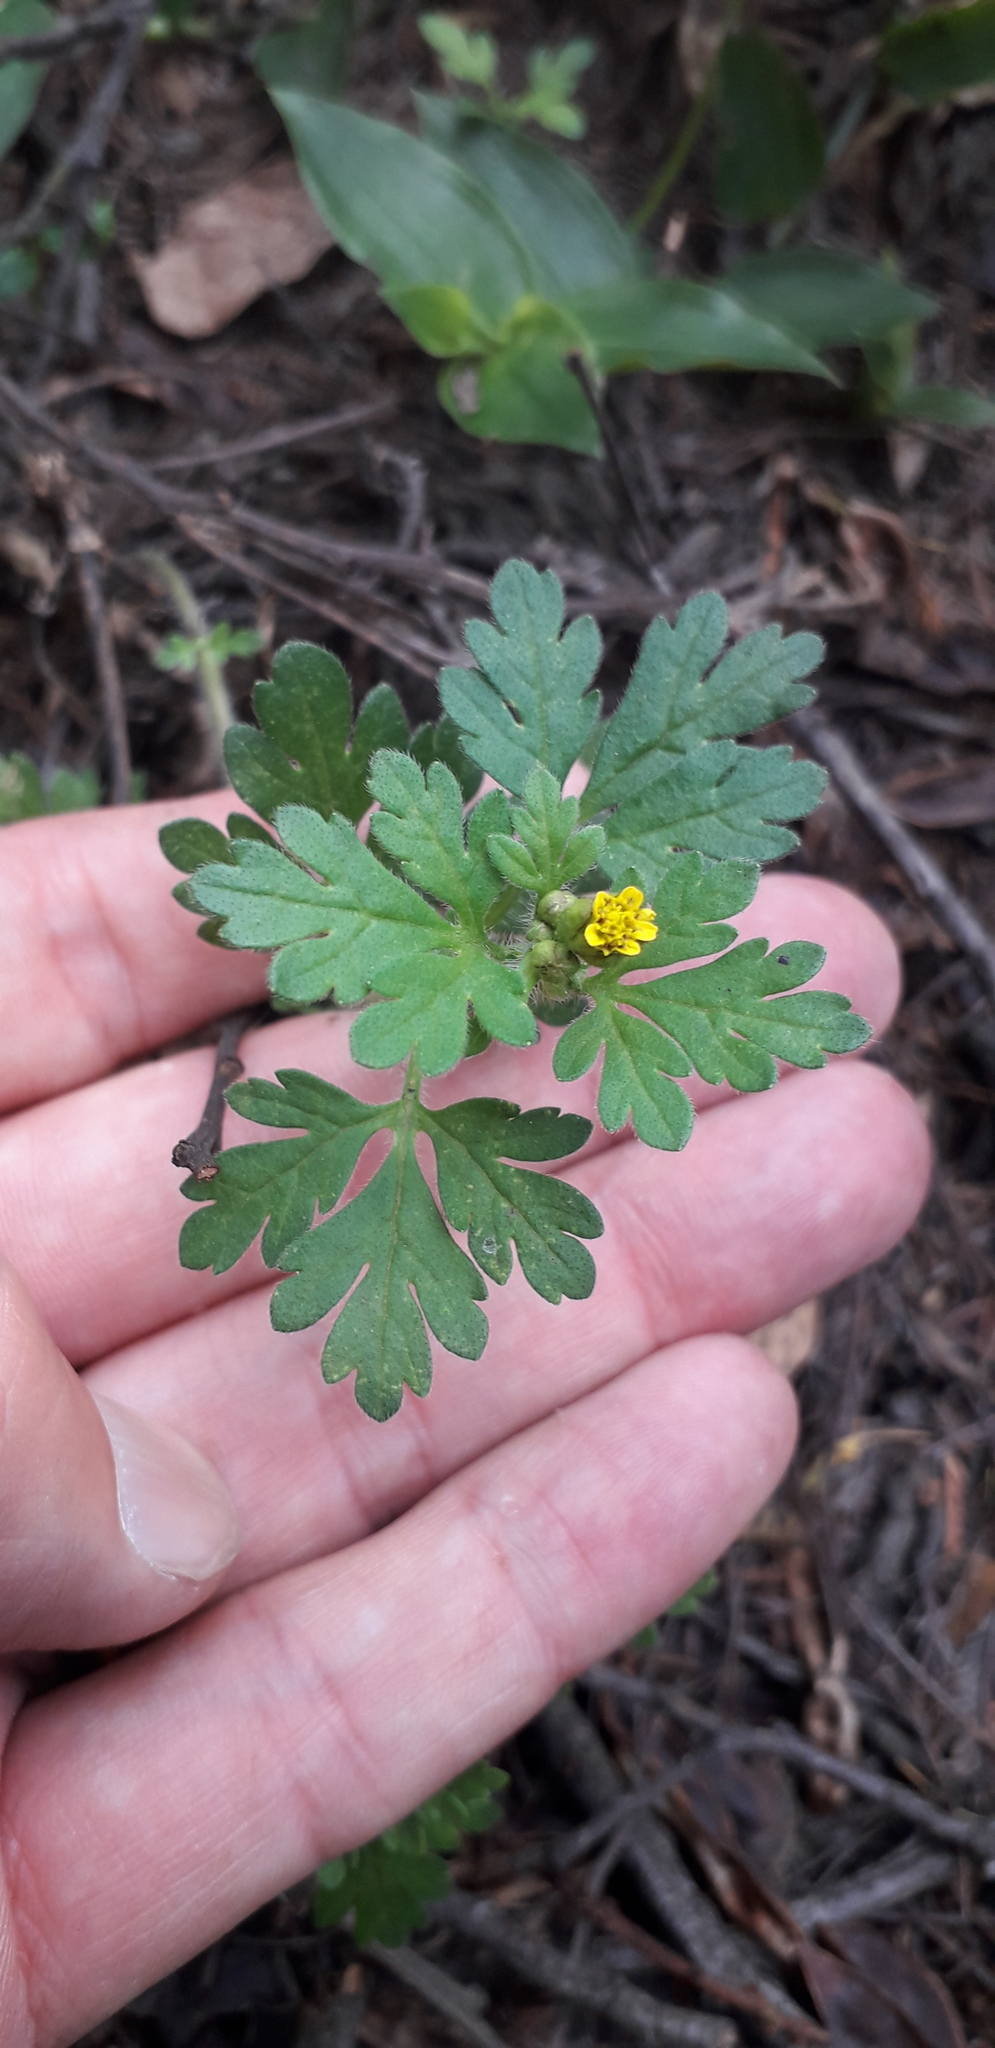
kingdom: Plantae
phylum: Tracheophyta
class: Magnoliopsida
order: Asterales
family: Asteraceae
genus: Villanova
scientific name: Villanova oppositifolia
